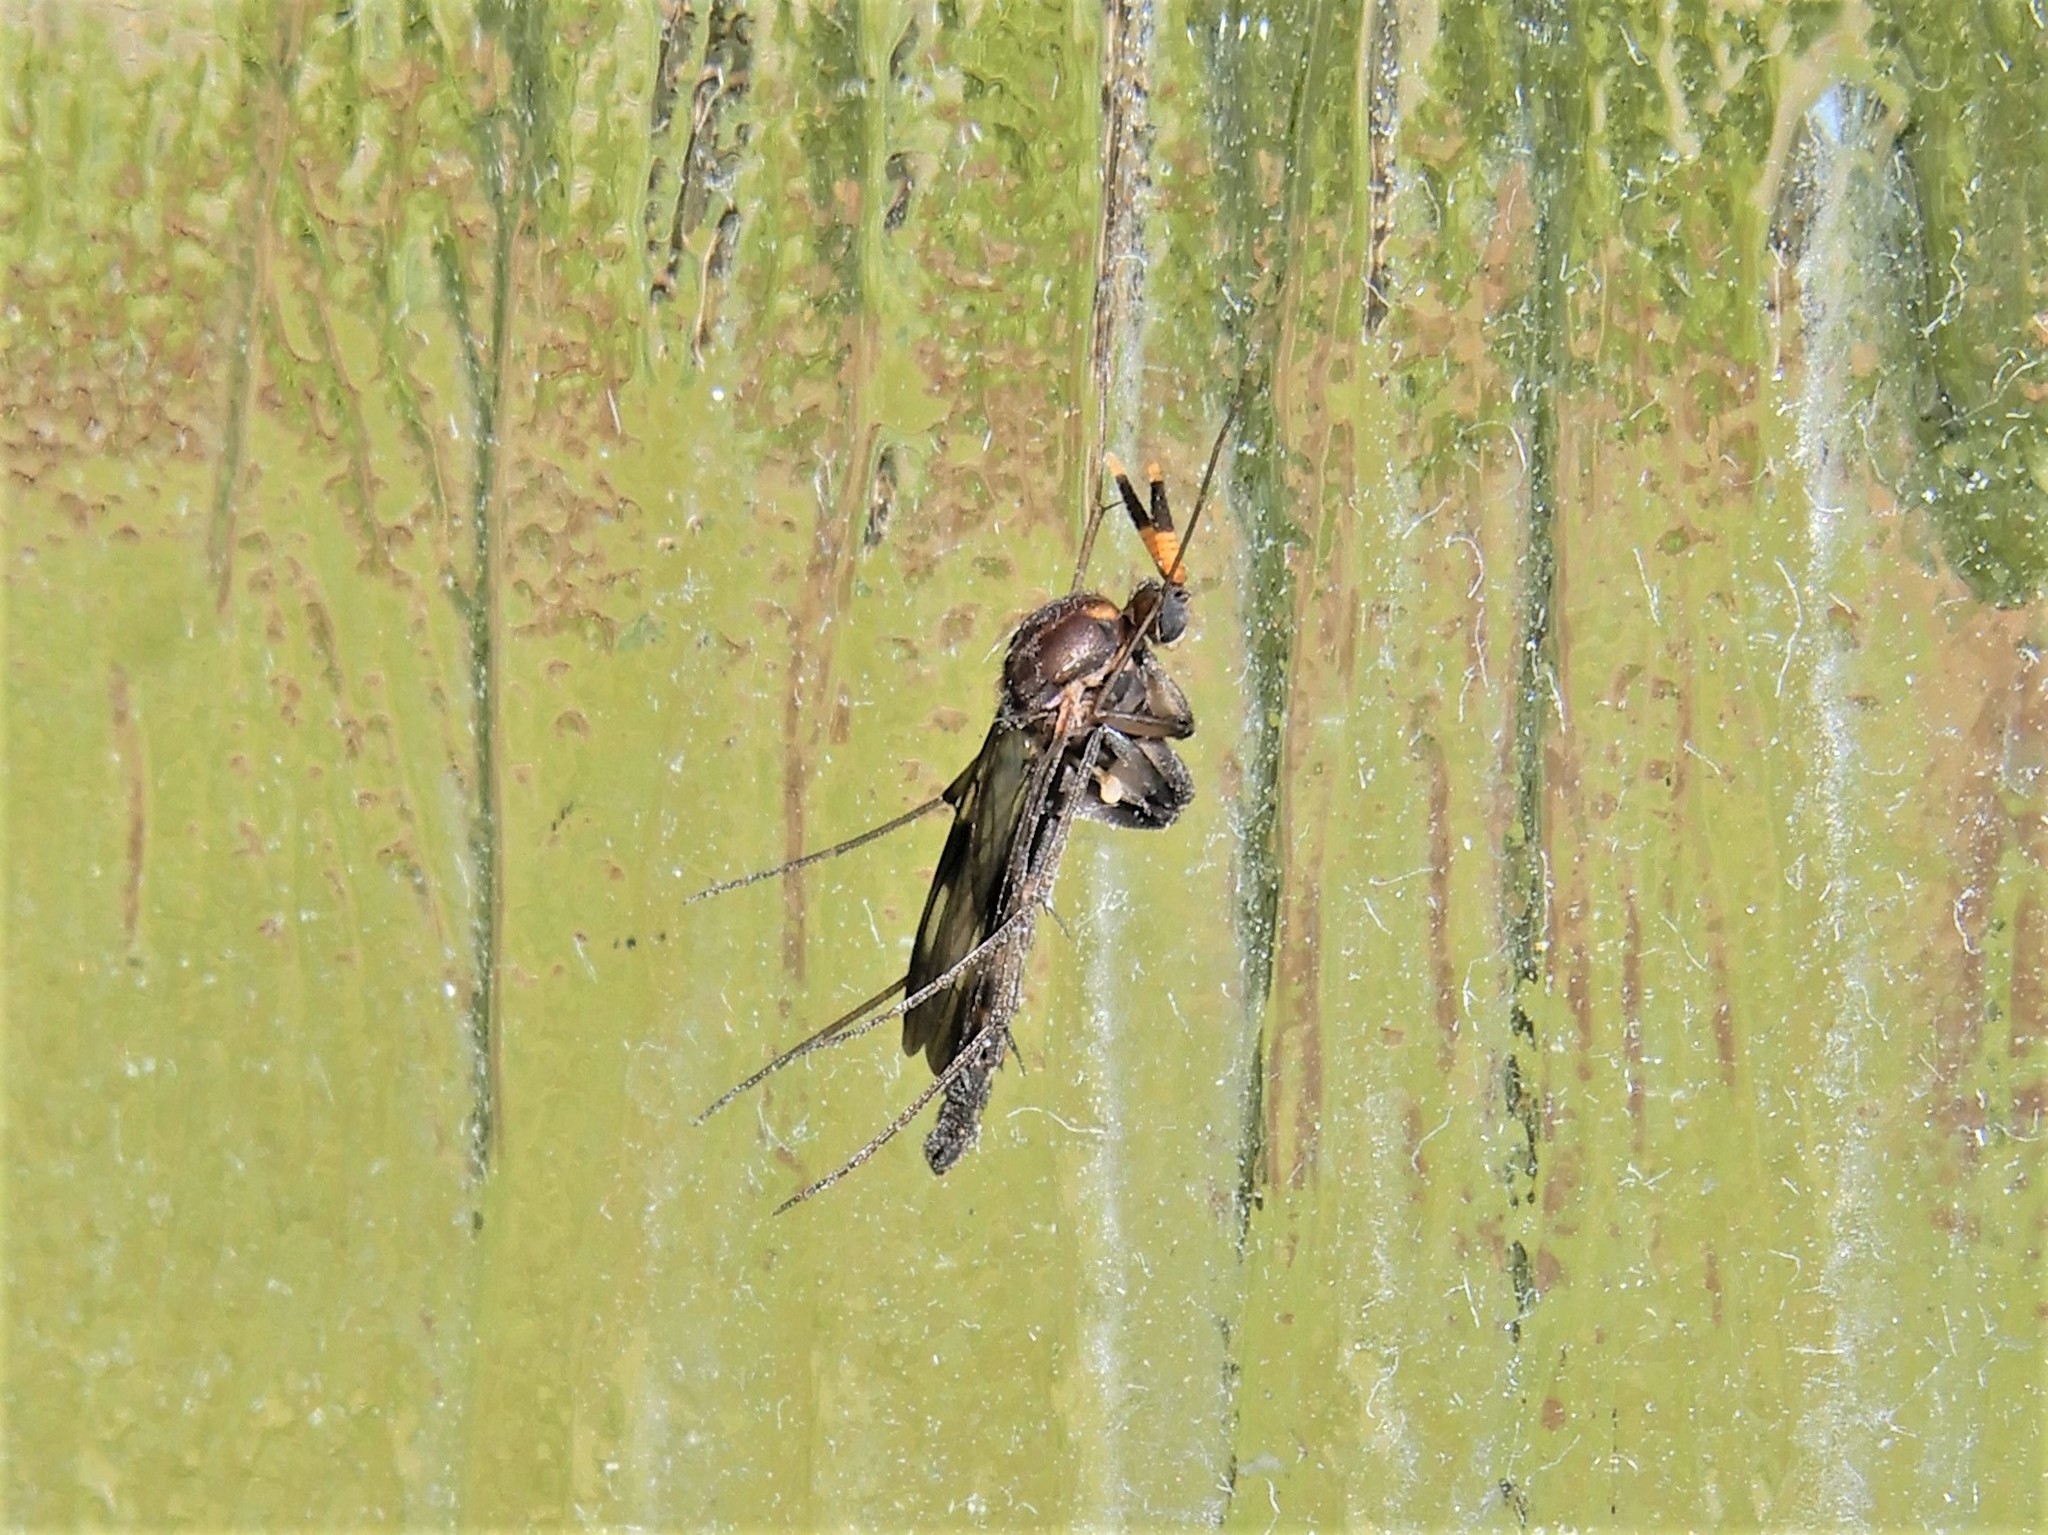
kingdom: Animalia
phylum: Arthropoda
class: Insecta
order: Diptera
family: Keroplatidae
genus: Cerotelion
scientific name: Cerotelion leucoceras
